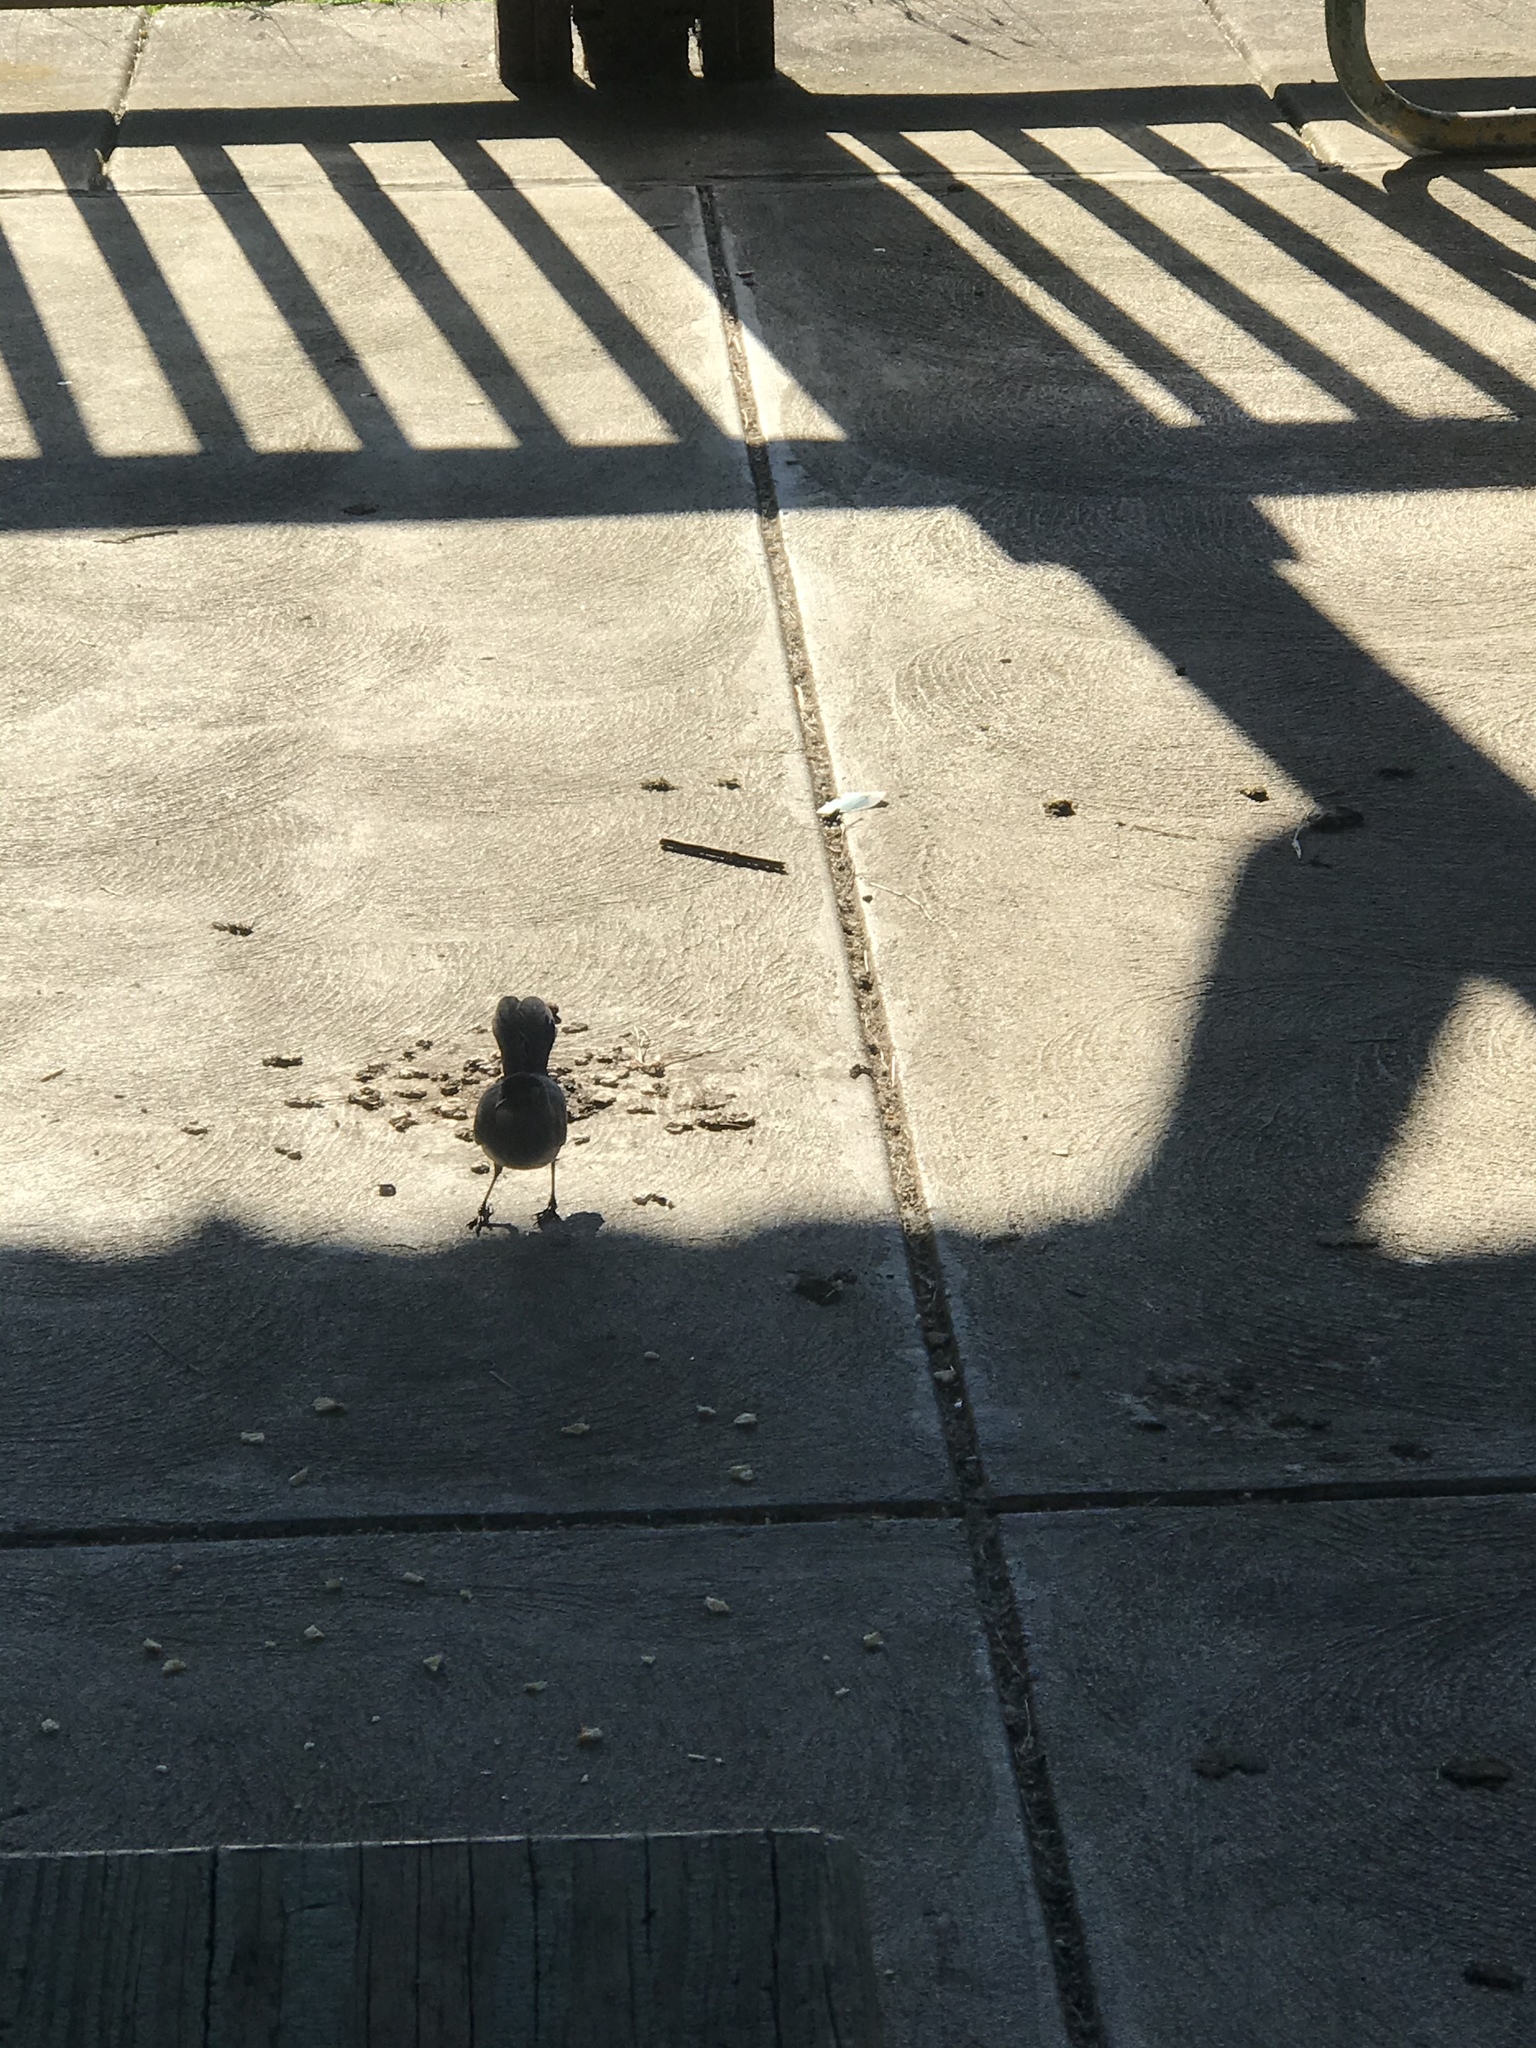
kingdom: Animalia
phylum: Chordata
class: Aves
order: Passeriformes
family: Mimidae
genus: Dumetella
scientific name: Dumetella carolinensis
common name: Gray catbird
